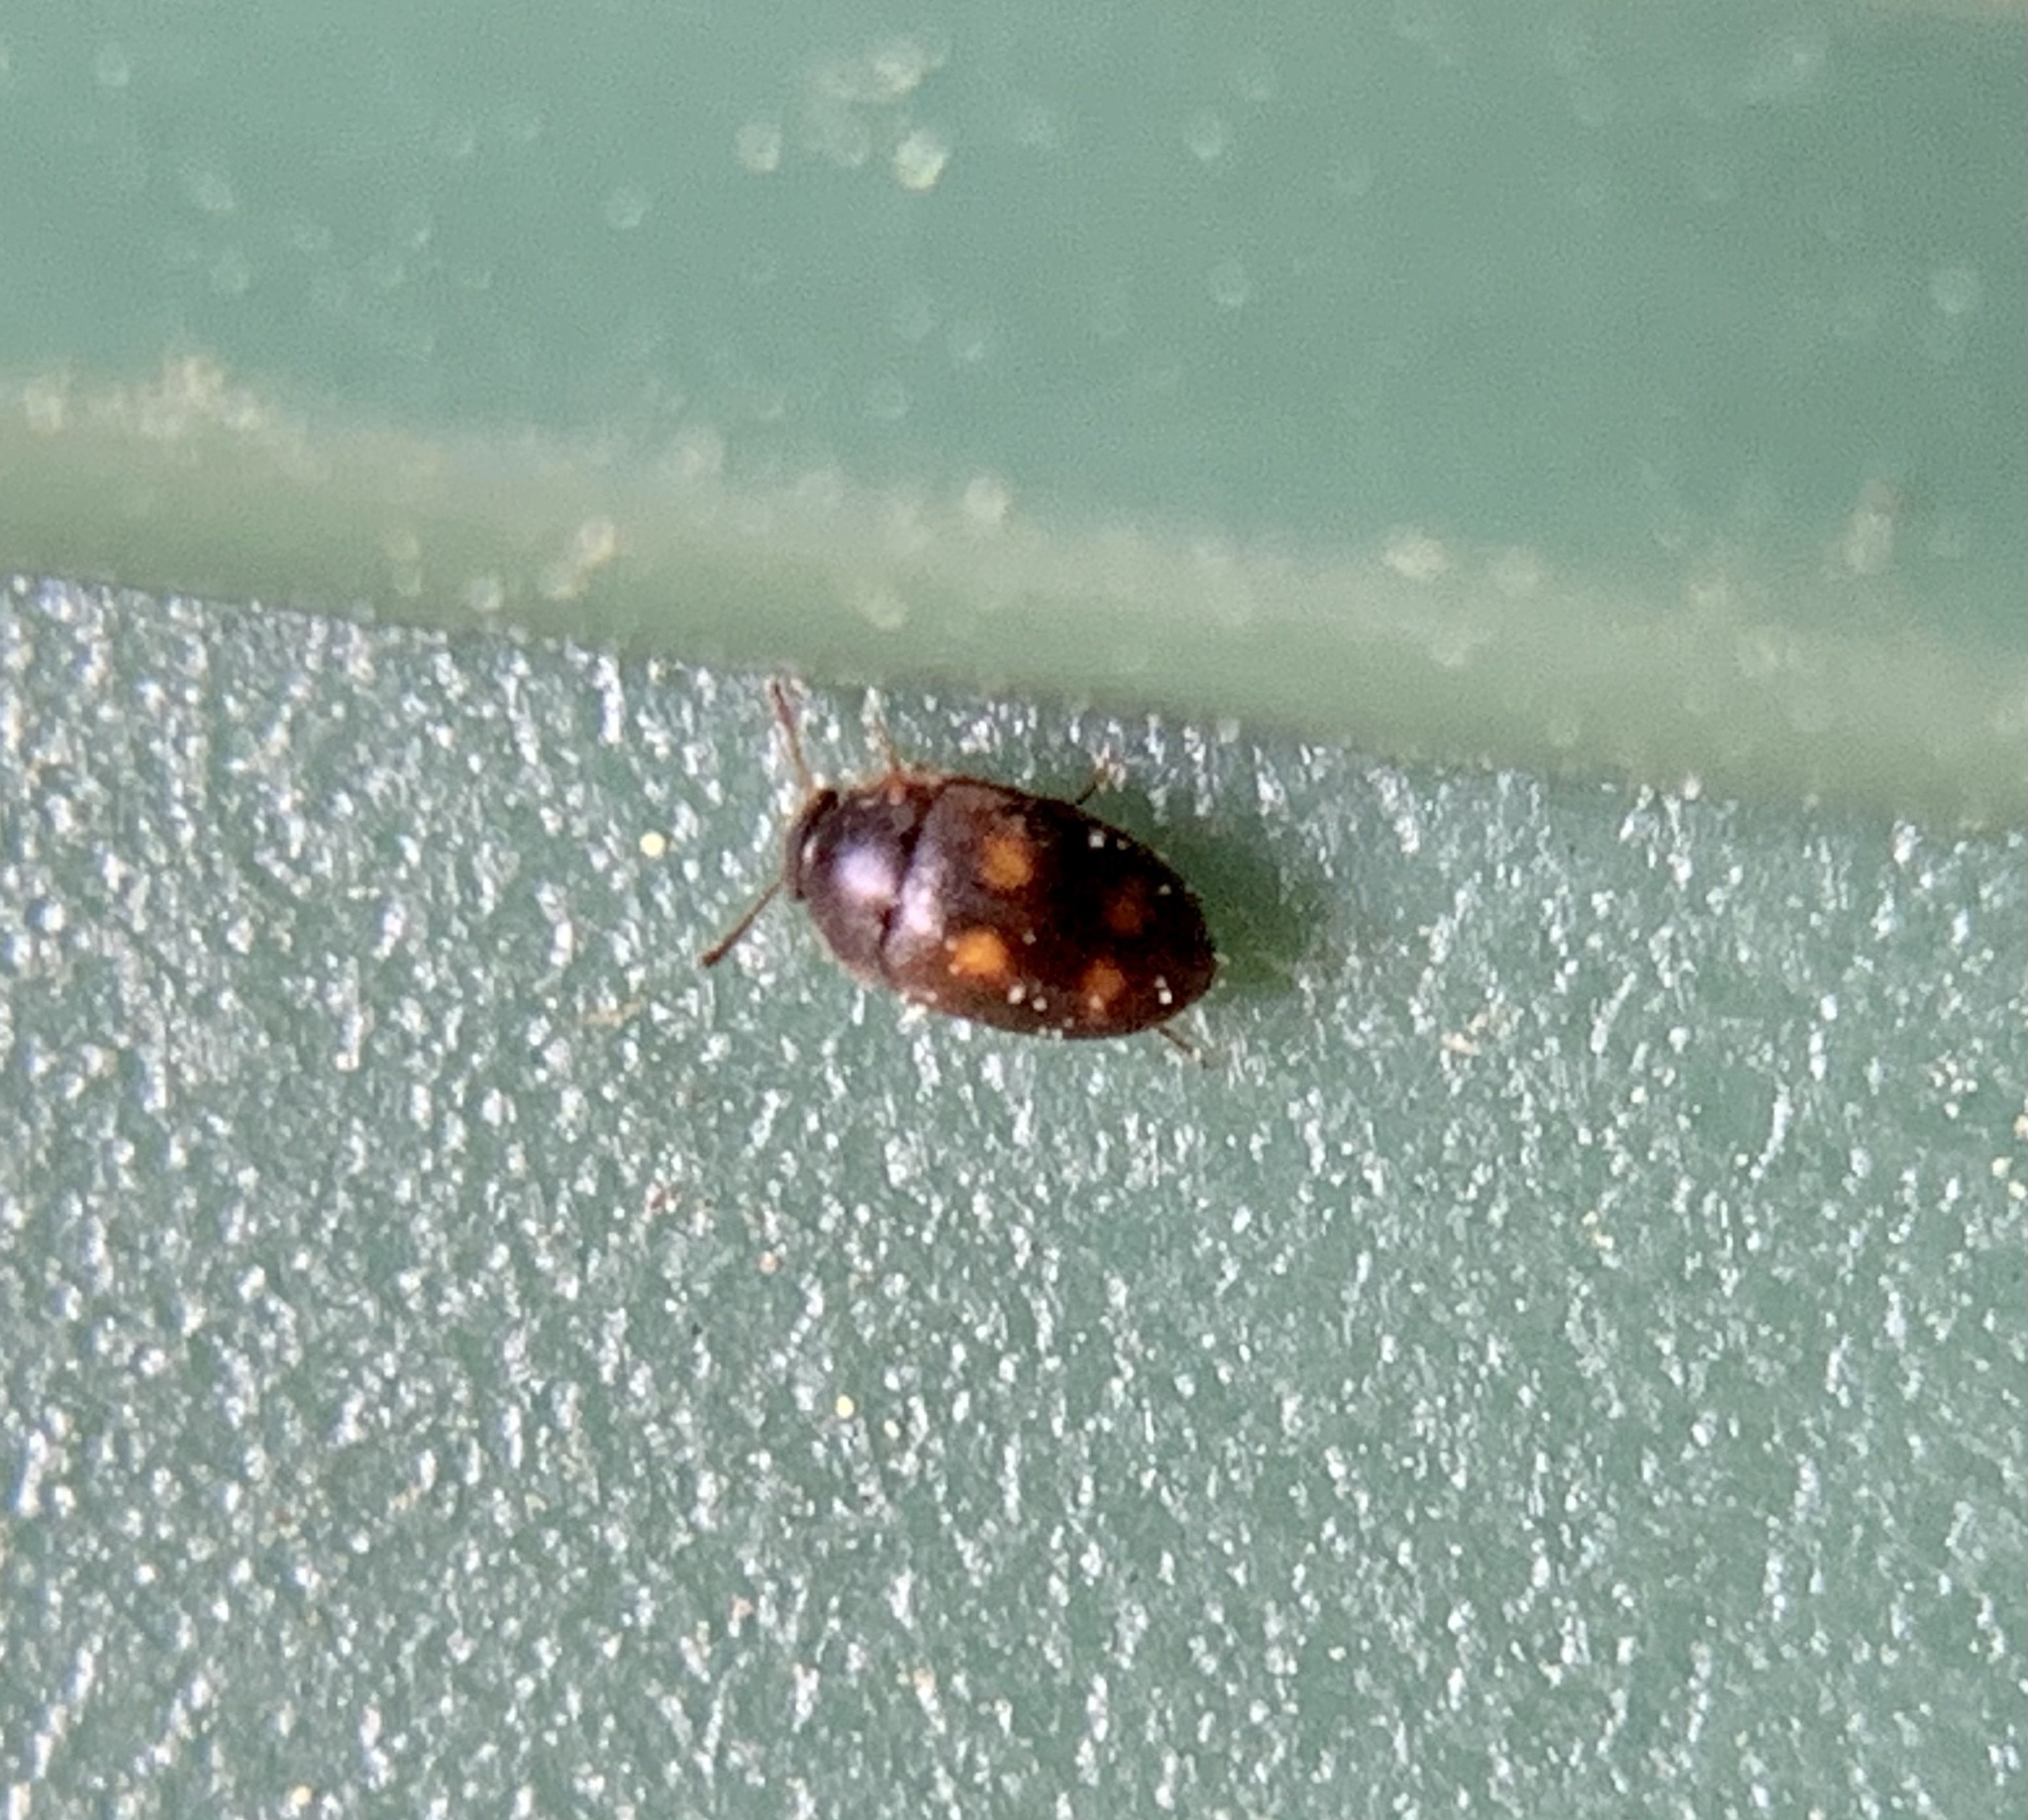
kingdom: Animalia
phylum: Arthropoda
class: Insecta
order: Coleoptera
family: Mycetophagidae
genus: Litargus
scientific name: Litargus tetraspilotus
